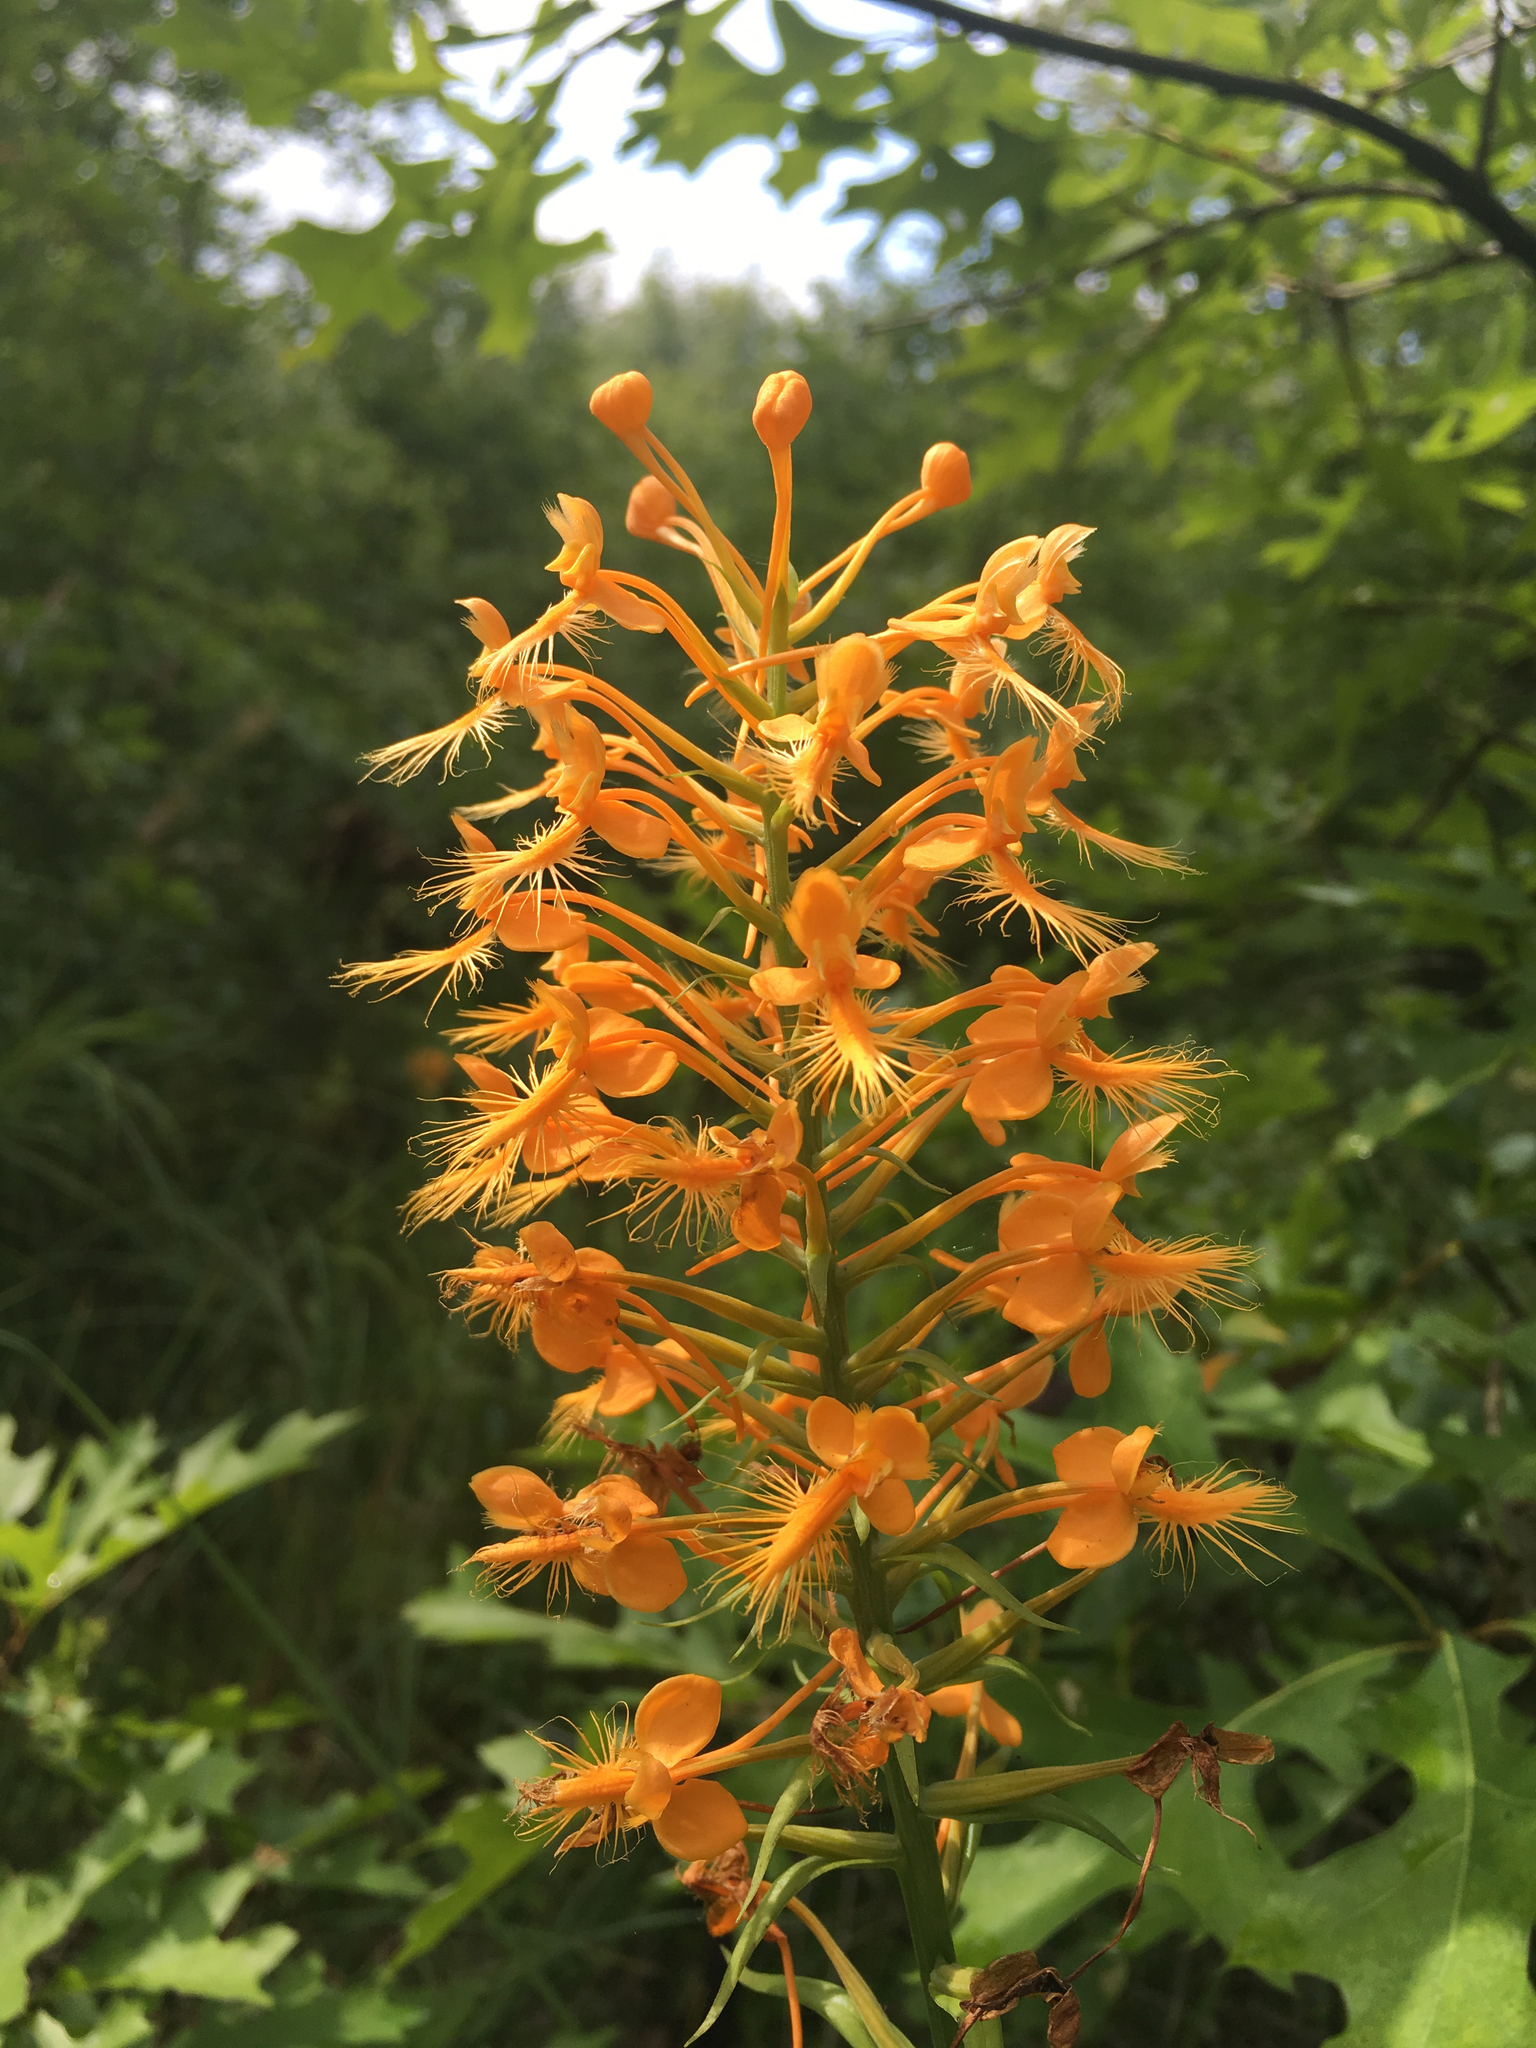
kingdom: Plantae
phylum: Tracheophyta
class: Liliopsida
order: Asparagales
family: Orchidaceae
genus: Platanthera
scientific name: Platanthera ciliaris
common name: Yellow fringed orchid
